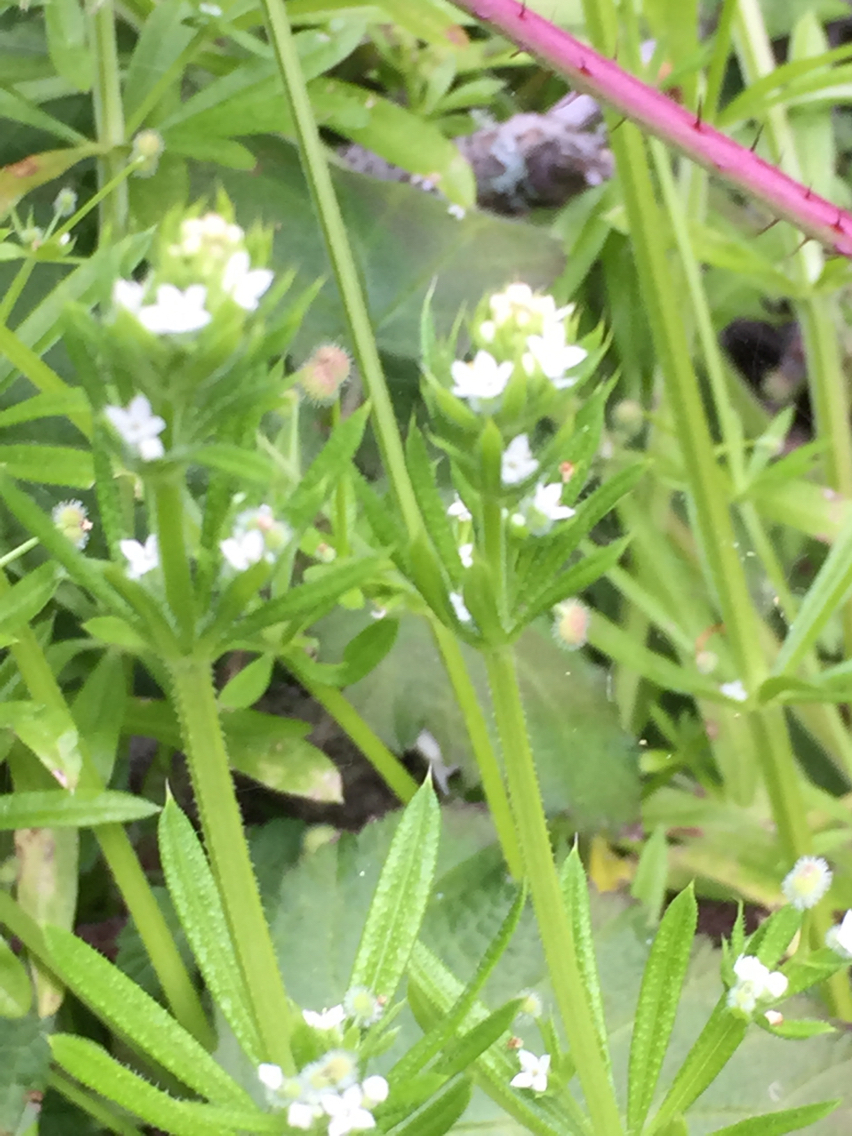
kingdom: Plantae
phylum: Tracheophyta
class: Magnoliopsida
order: Gentianales
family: Rubiaceae
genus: Galium
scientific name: Galium aparine
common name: Cleavers
